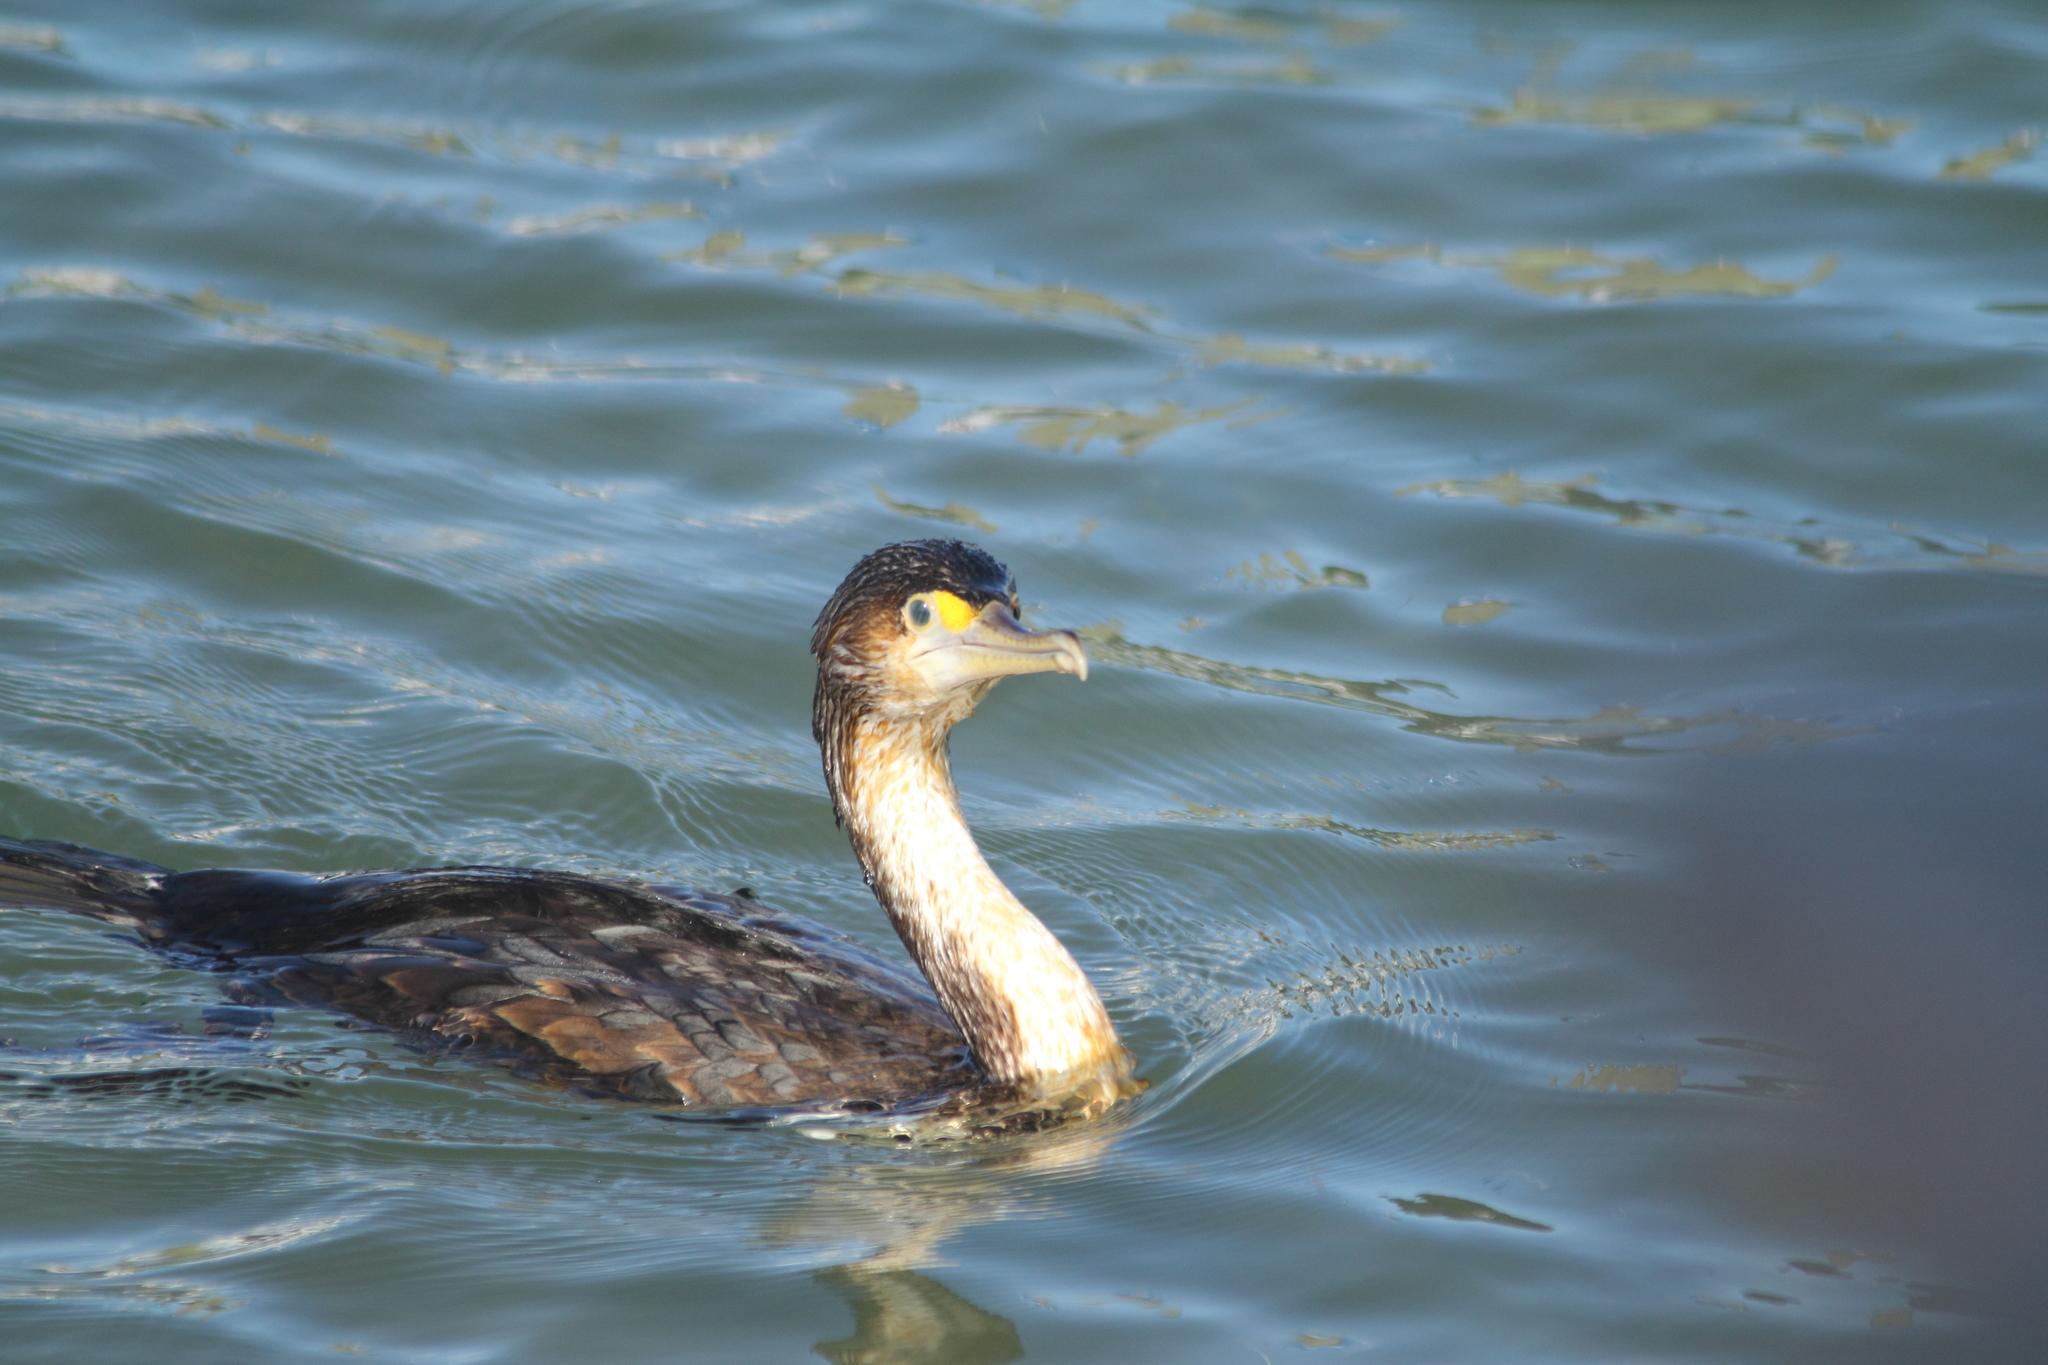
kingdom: Animalia
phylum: Chordata
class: Aves
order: Suliformes
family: Phalacrocoracidae
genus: Phalacrocorax
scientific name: Phalacrocorax varius
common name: Pied cormorant
